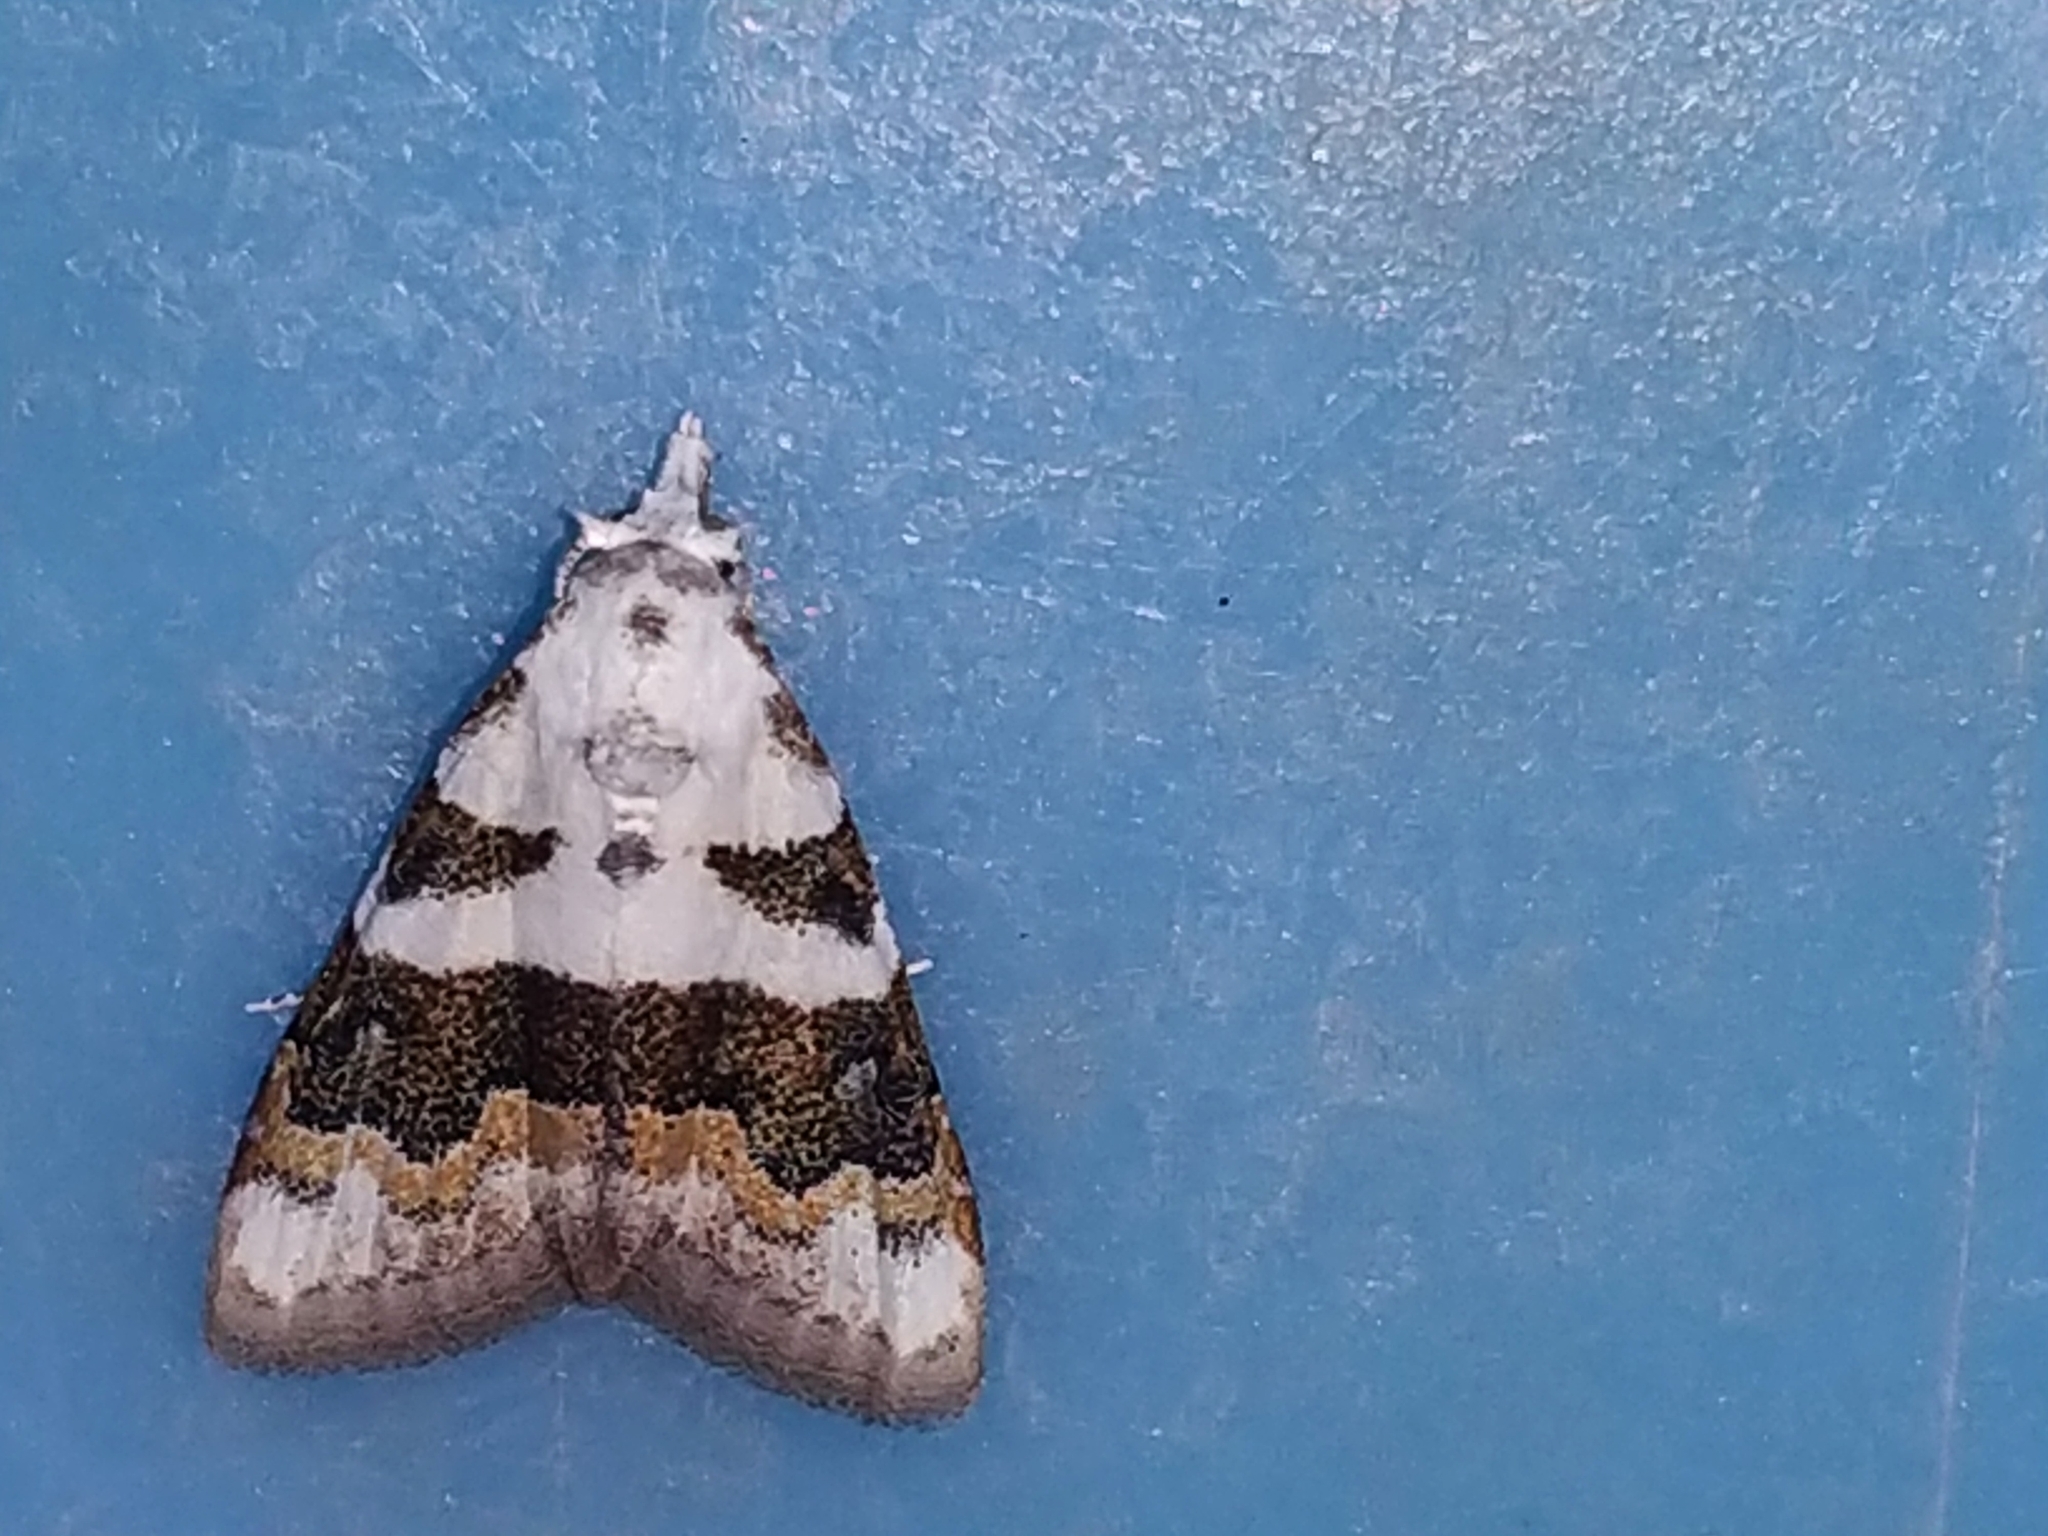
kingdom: Animalia
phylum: Arthropoda
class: Insecta
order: Lepidoptera
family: Nolidae
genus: Nola
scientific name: Nola lucidalis
